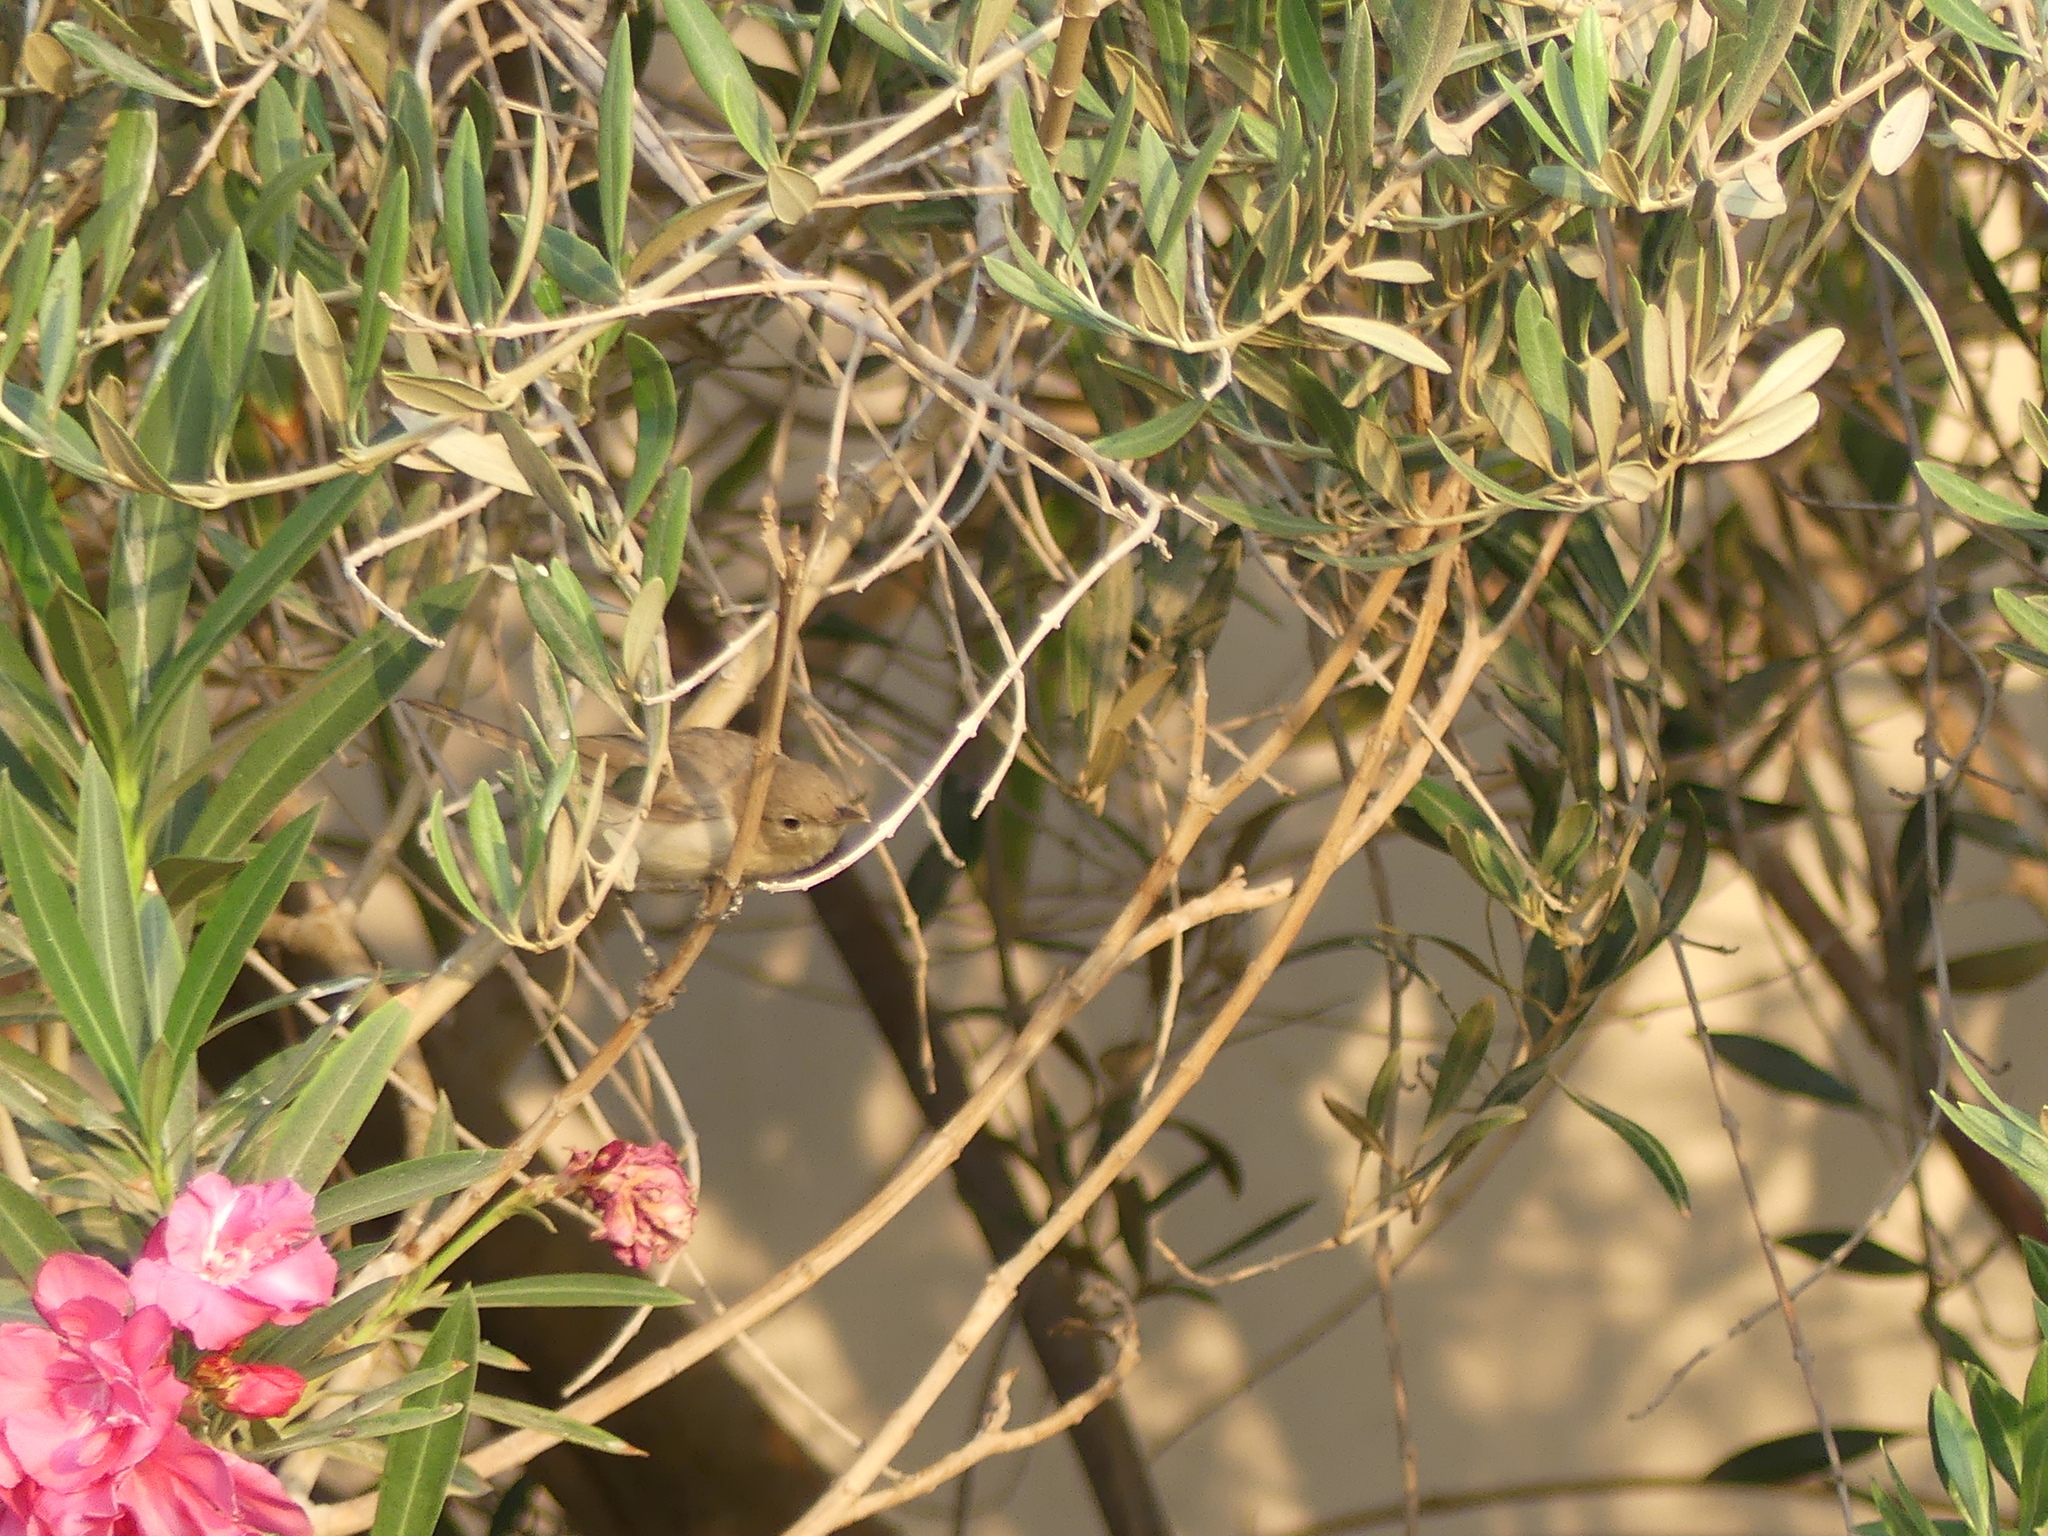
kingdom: Animalia
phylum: Chordata
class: Aves
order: Passeriformes
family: Acrocephalidae
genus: Iduna
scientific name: Iduna pallida
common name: Eastern olivaceous warbler
